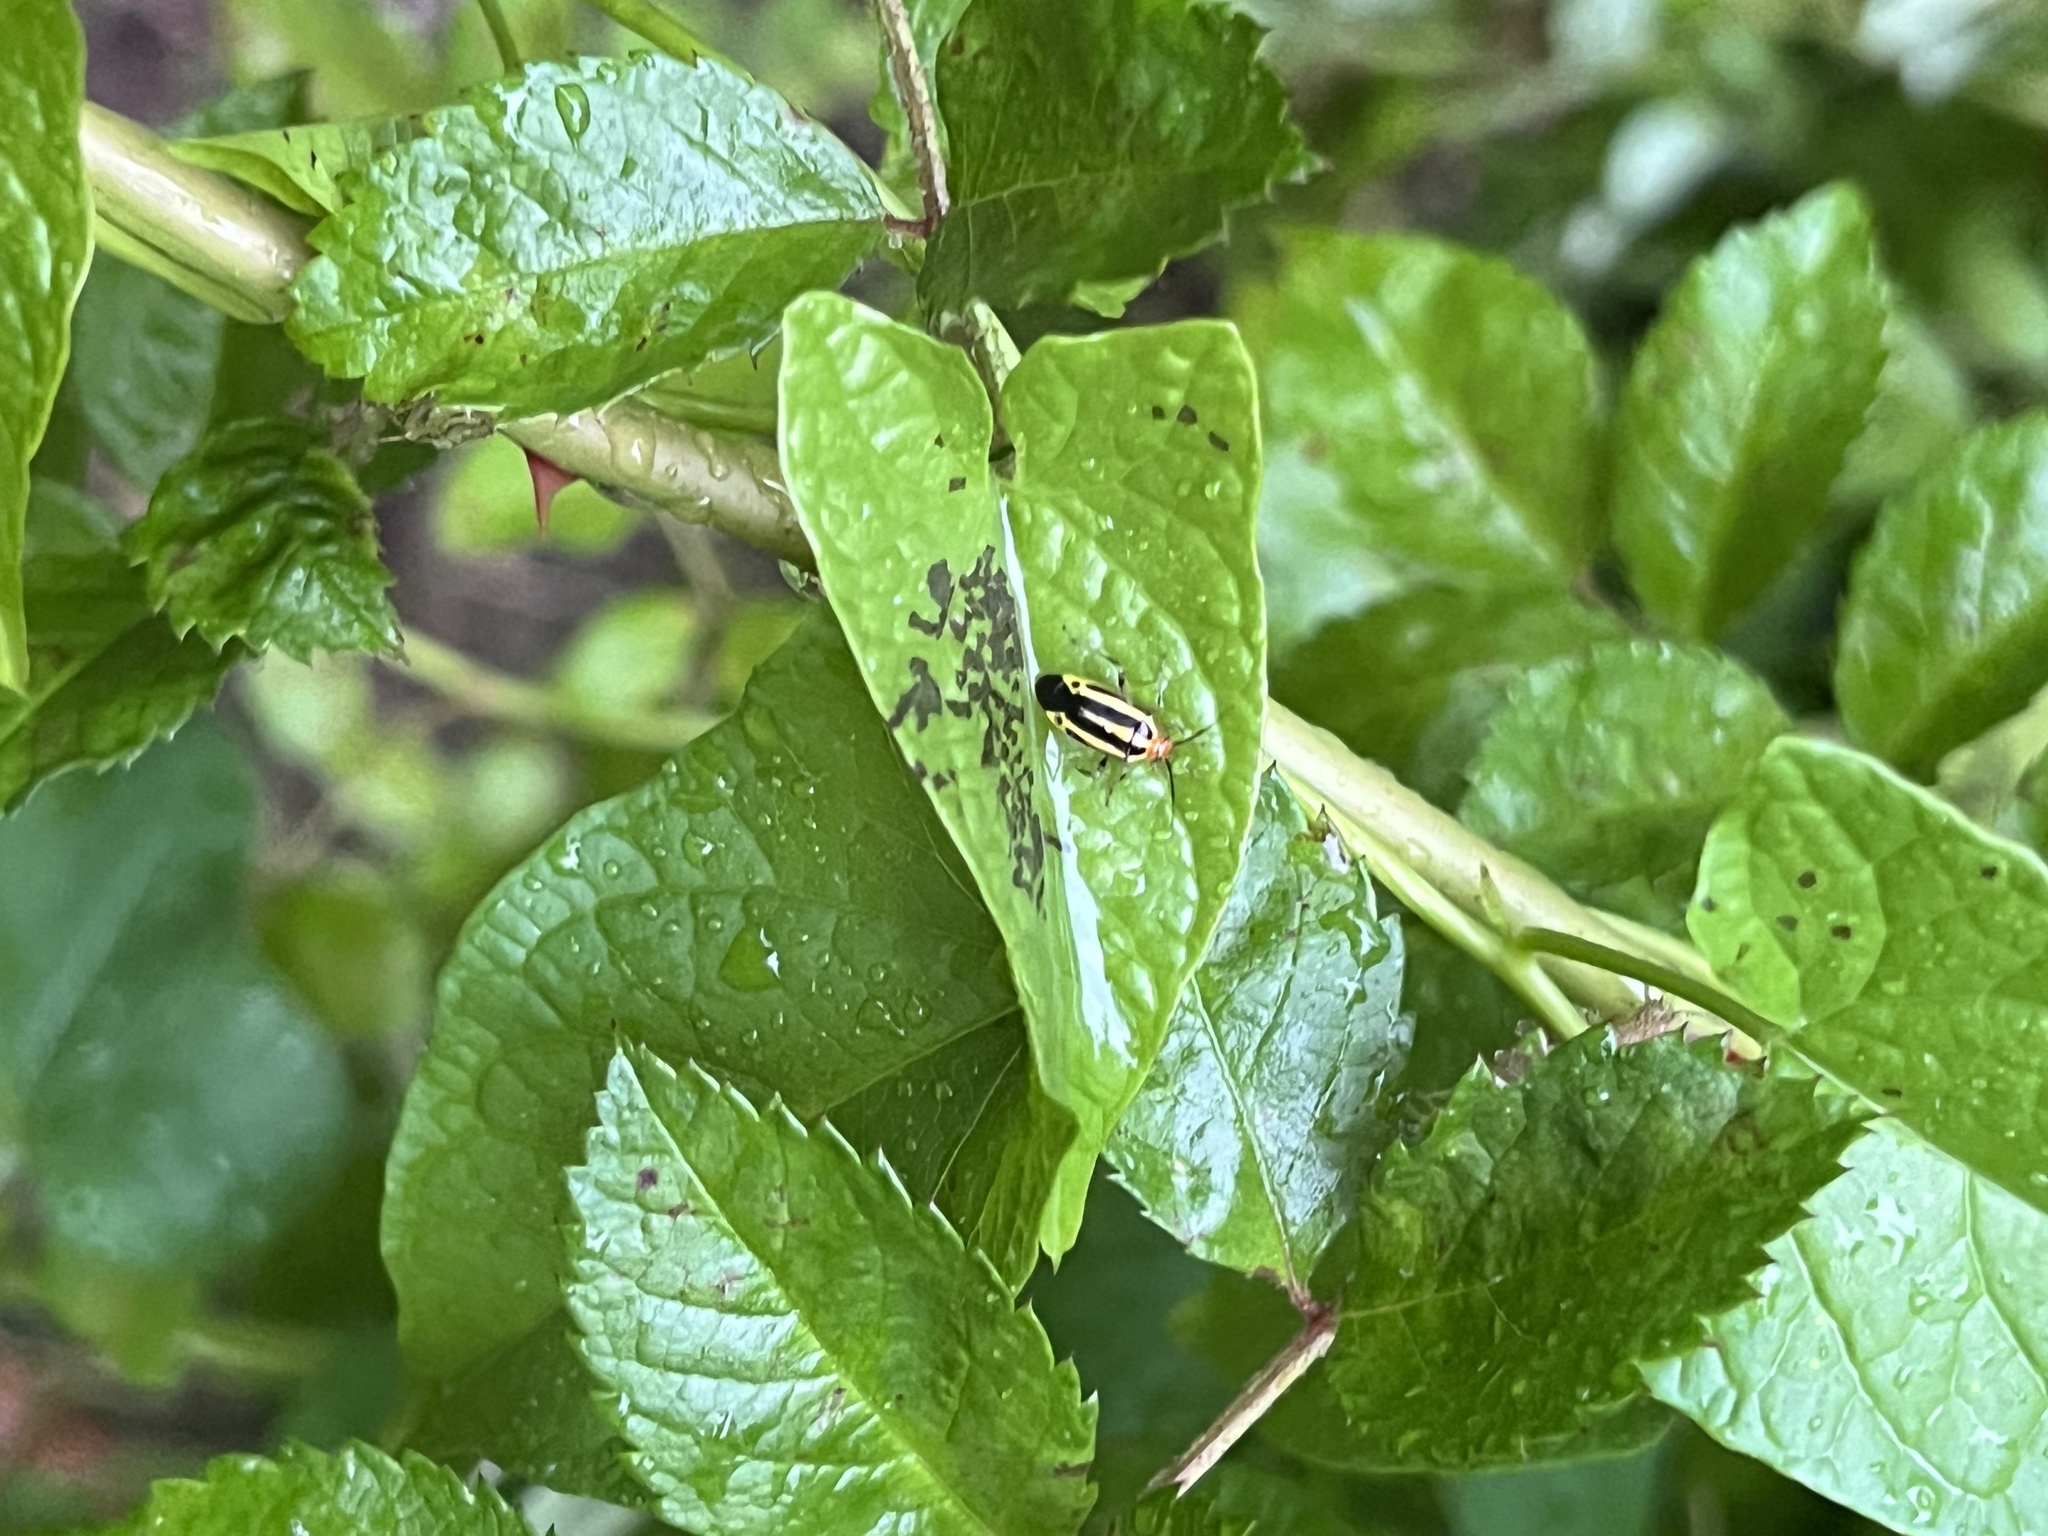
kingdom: Animalia
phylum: Arthropoda
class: Insecta
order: Hemiptera
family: Miridae
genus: Poecilocapsus
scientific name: Poecilocapsus lineatus
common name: Four-lined plant bug
